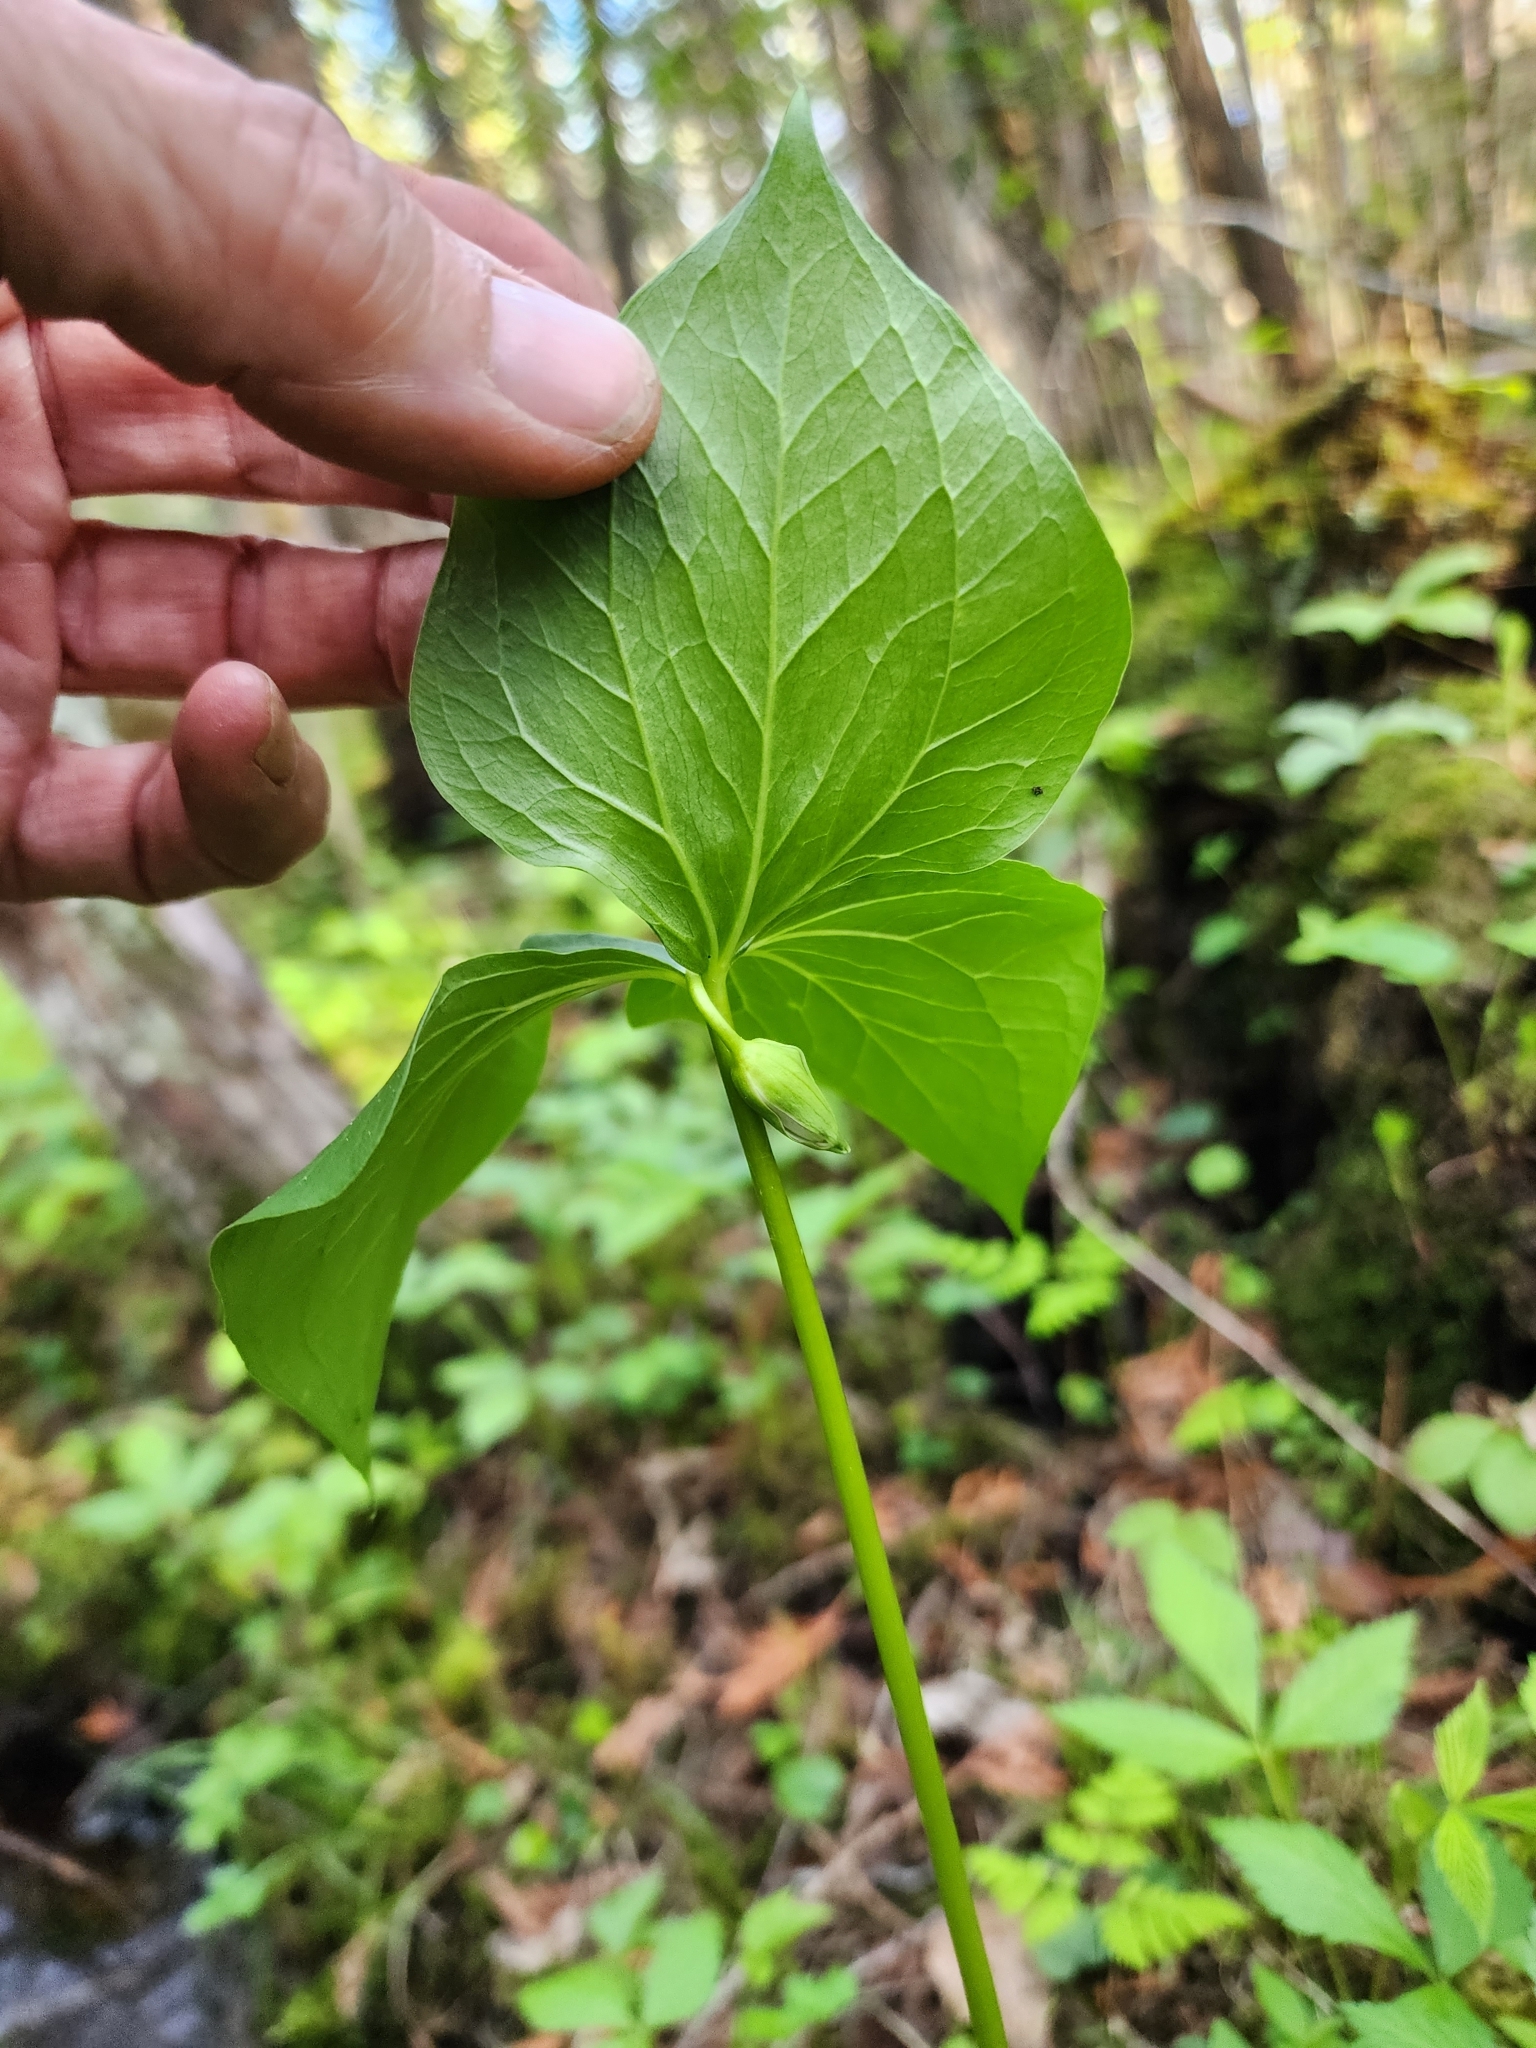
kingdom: Plantae
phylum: Tracheophyta
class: Liliopsida
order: Liliales
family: Melanthiaceae
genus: Trillium
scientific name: Trillium cernuum
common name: Nodding trillium
